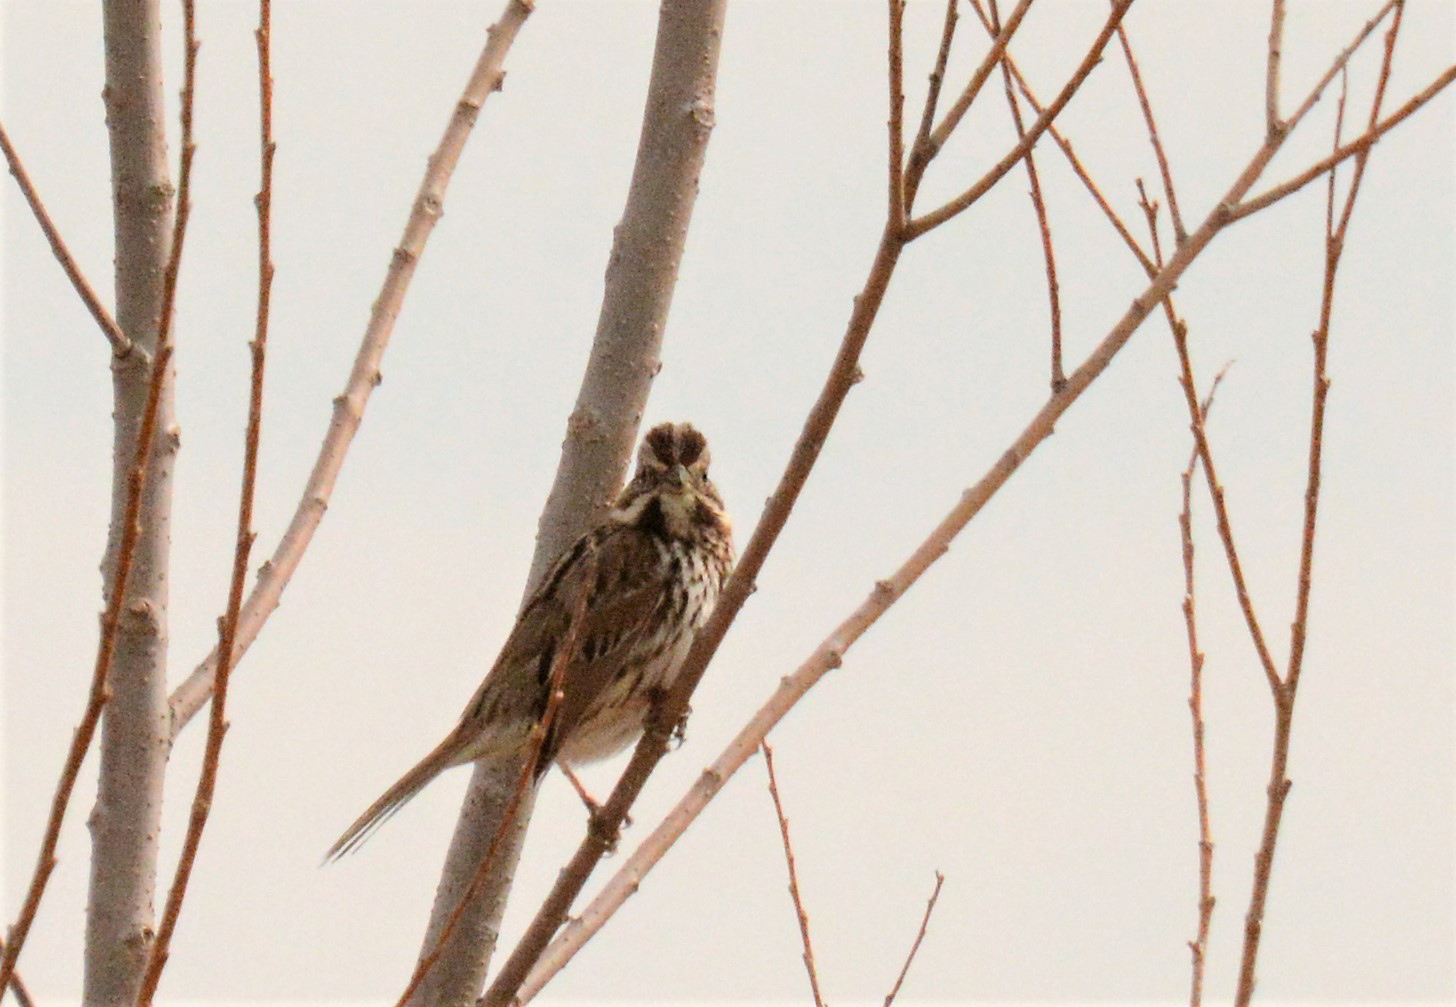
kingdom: Animalia
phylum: Chordata
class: Aves
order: Passeriformes
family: Passerellidae
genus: Melospiza
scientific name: Melospiza melodia
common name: Song sparrow
